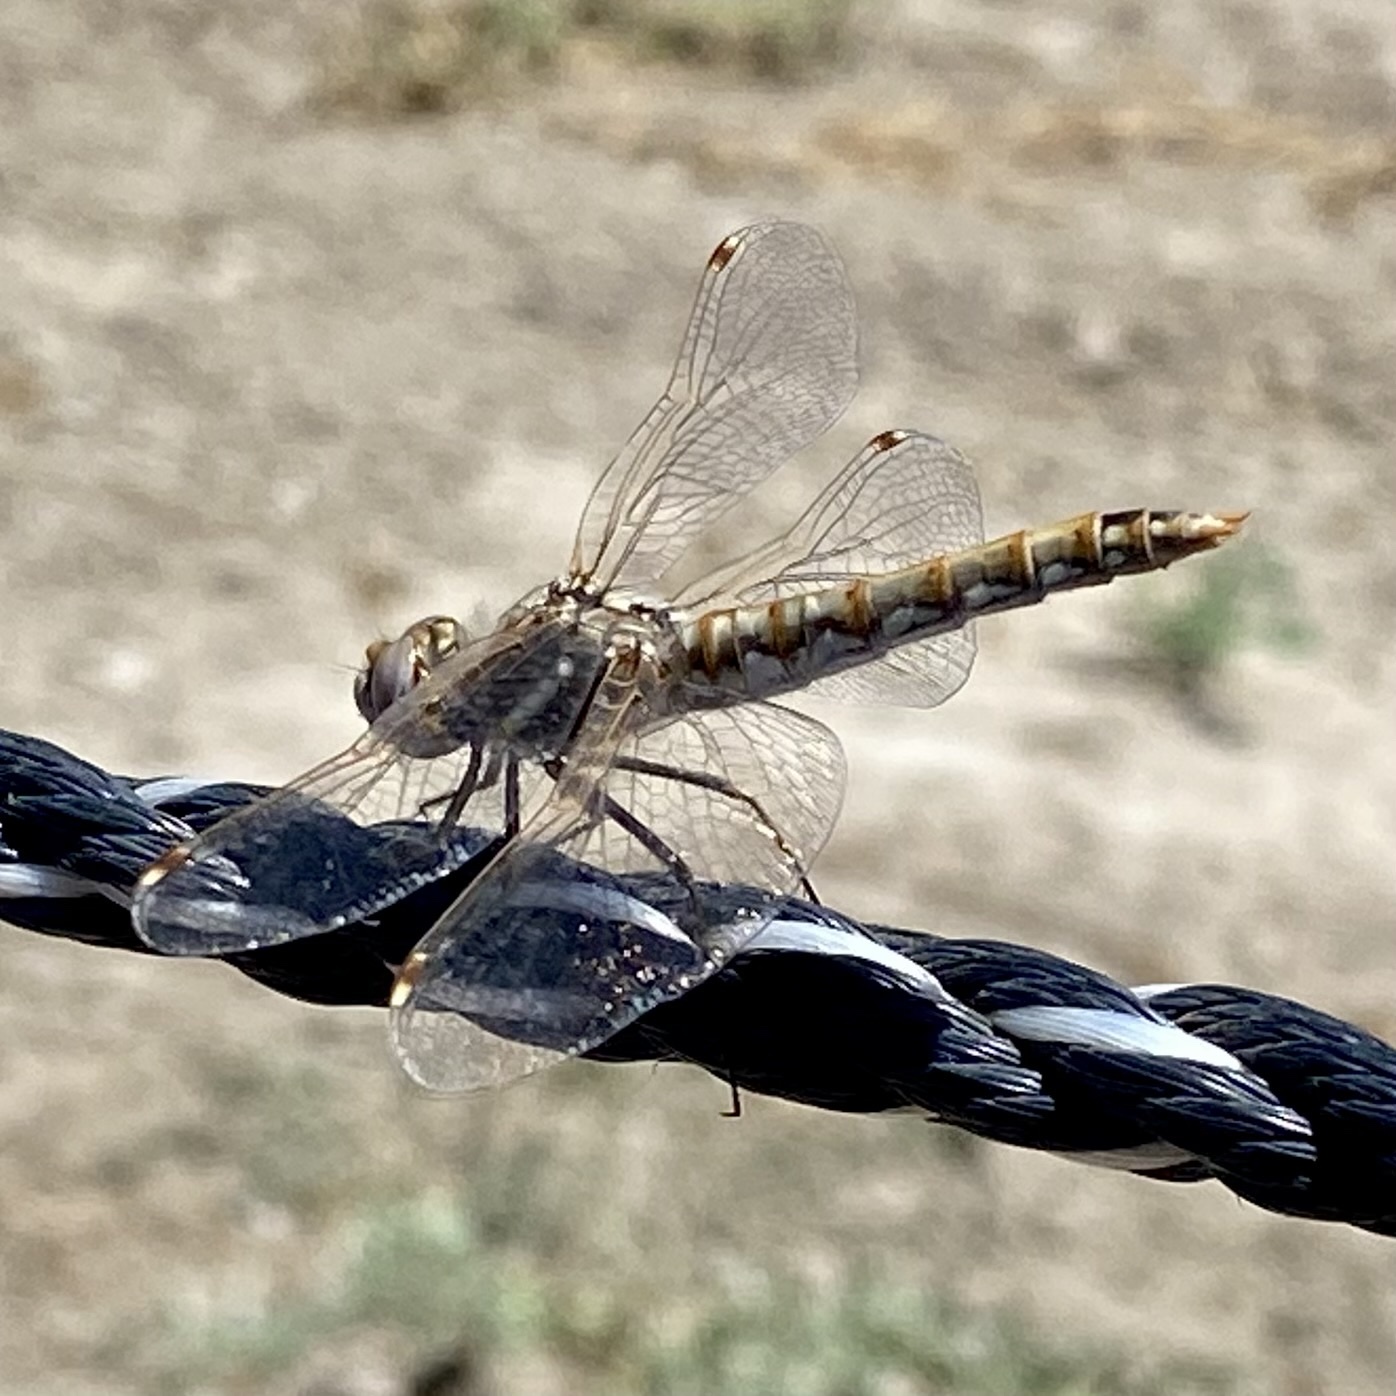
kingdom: Animalia
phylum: Arthropoda
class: Insecta
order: Odonata
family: Libellulidae
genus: Sympetrum
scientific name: Sympetrum corruptum
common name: Variegated meadowhawk
